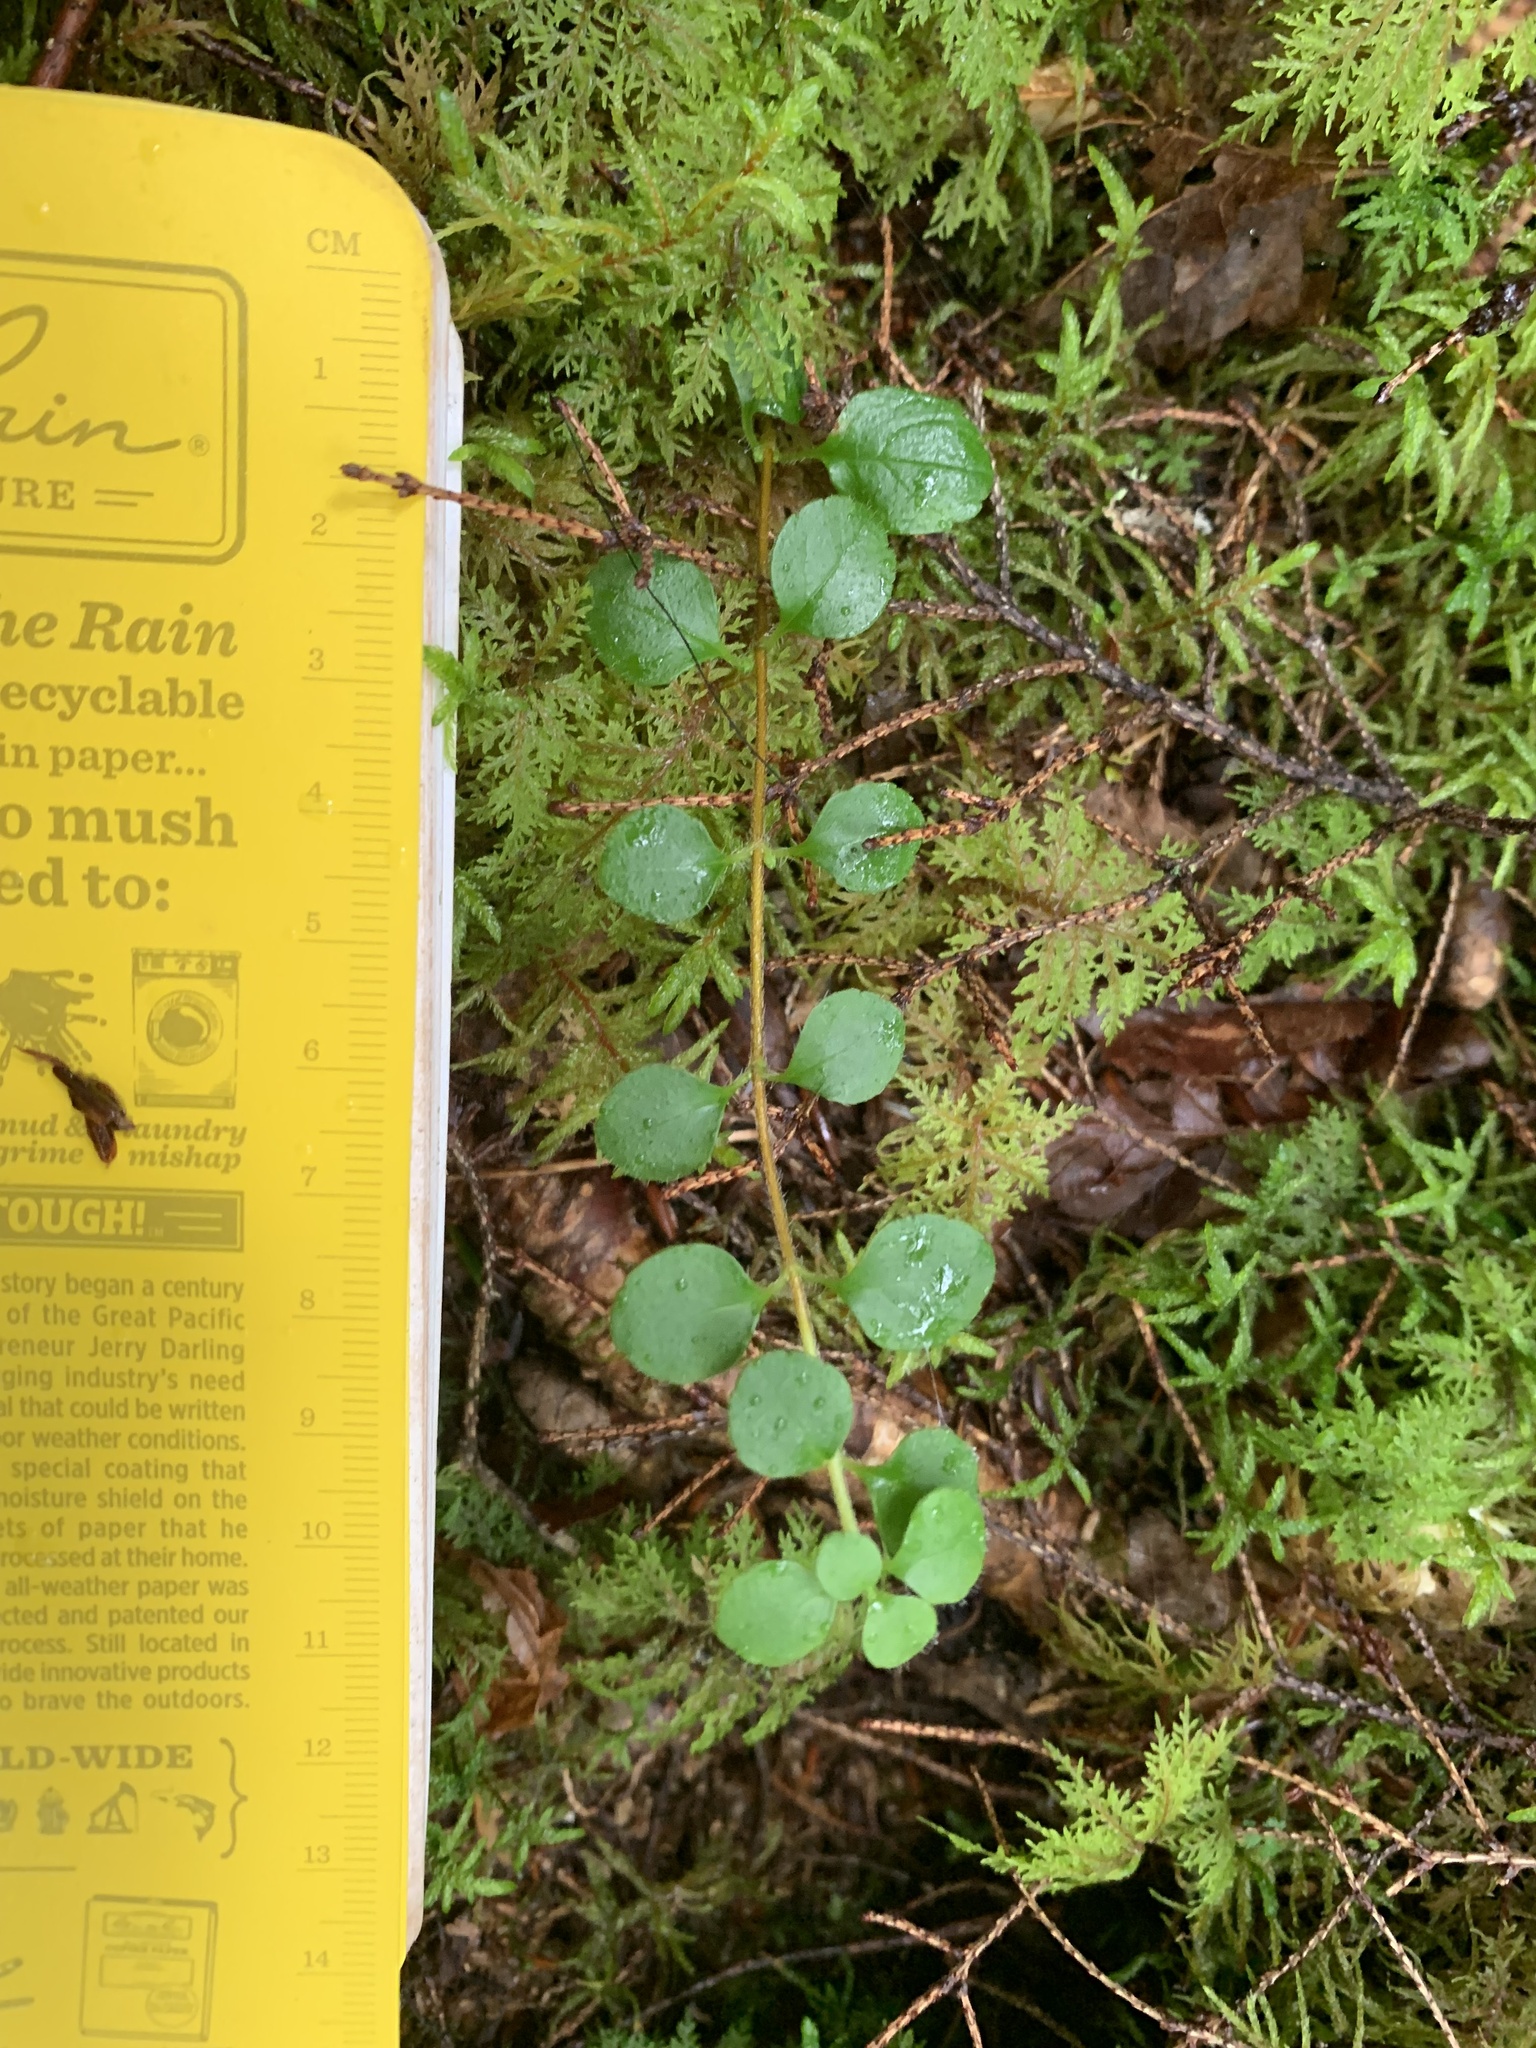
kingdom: Plantae
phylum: Tracheophyta
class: Magnoliopsida
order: Dipsacales
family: Caprifoliaceae
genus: Linnaea
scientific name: Linnaea borealis
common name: Twinflower
